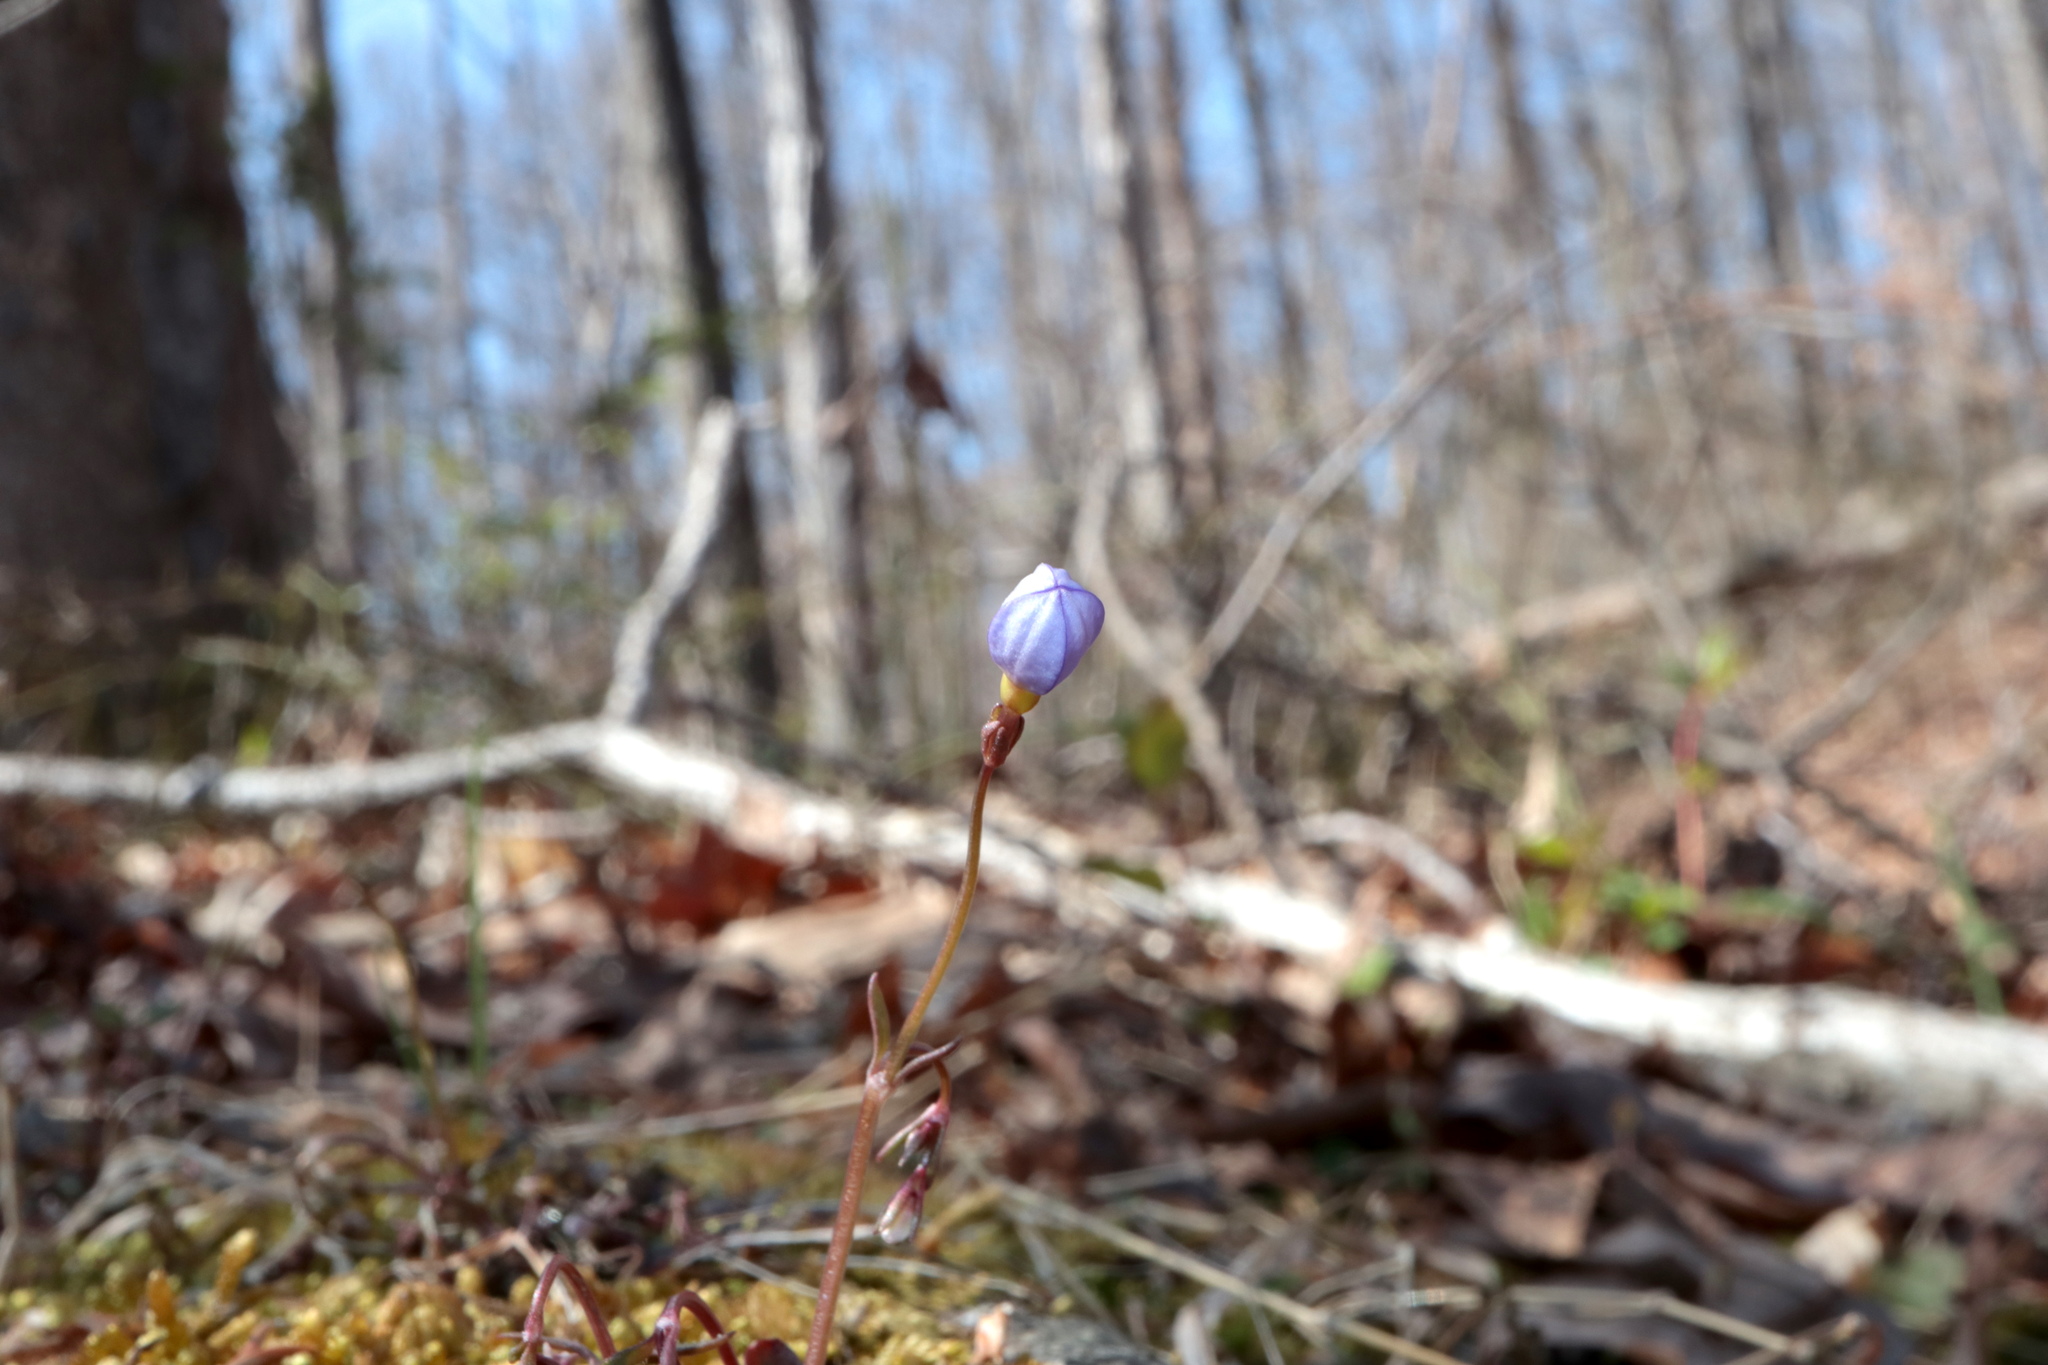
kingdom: Plantae
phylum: Tracheophyta
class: Magnoliopsida
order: Gentianales
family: Rubiaceae
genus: Houstonia
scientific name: Houstonia caerulea
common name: Bluets
